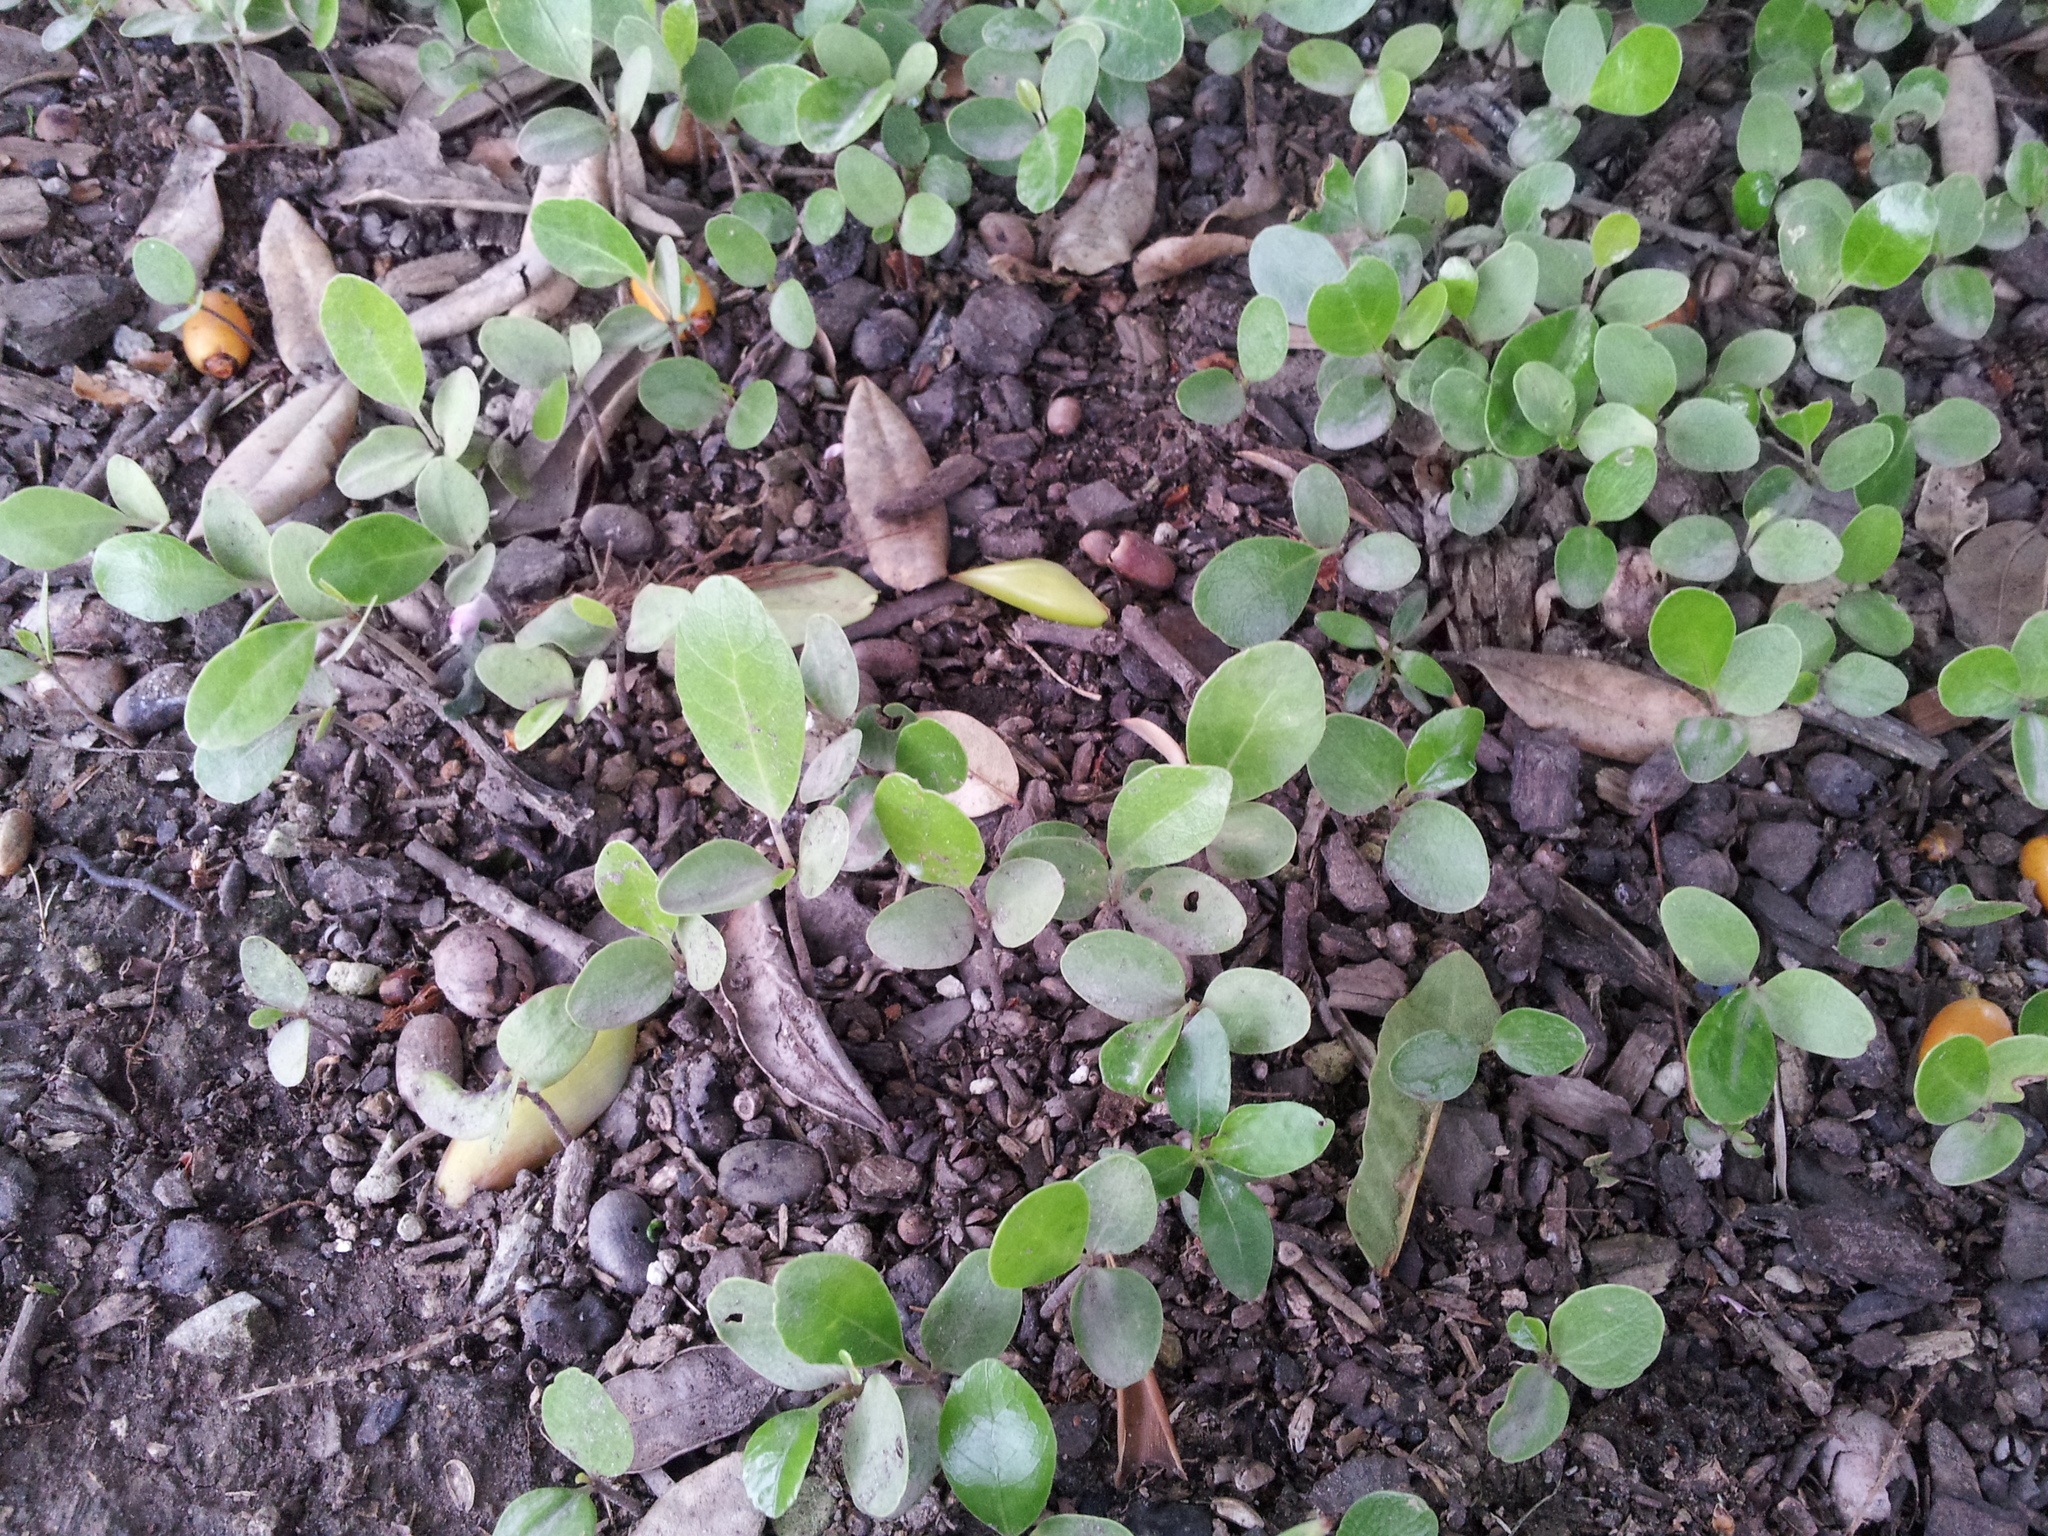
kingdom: Plantae
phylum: Tracheophyta
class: Magnoliopsida
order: Apiales
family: Araliaceae
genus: Meryta
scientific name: Meryta sinclairii
